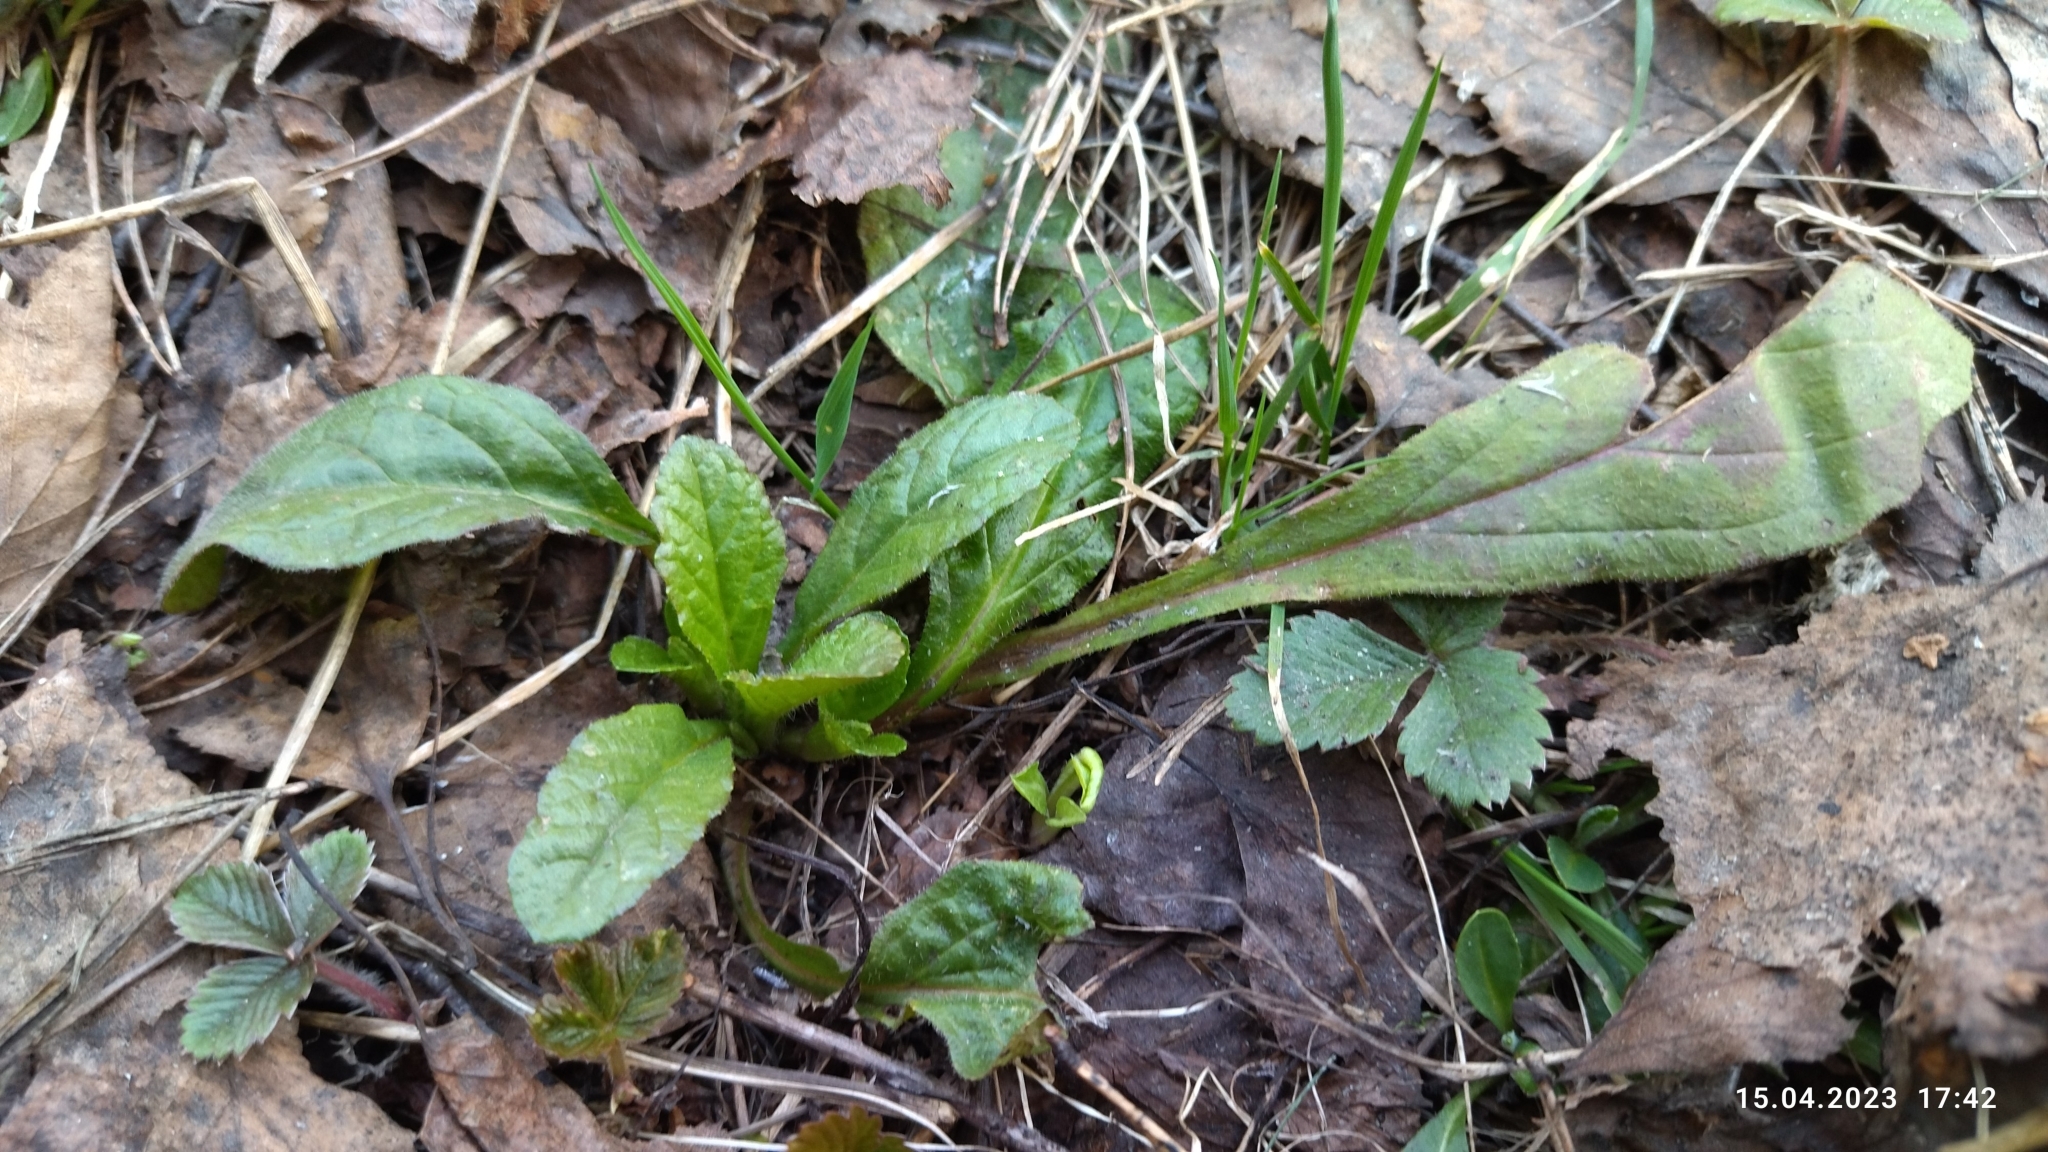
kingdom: Plantae
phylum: Tracheophyta
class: Magnoliopsida
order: Lamiales
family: Lamiaceae
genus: Ajuga
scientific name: Ajuga reptans
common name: Bugle
